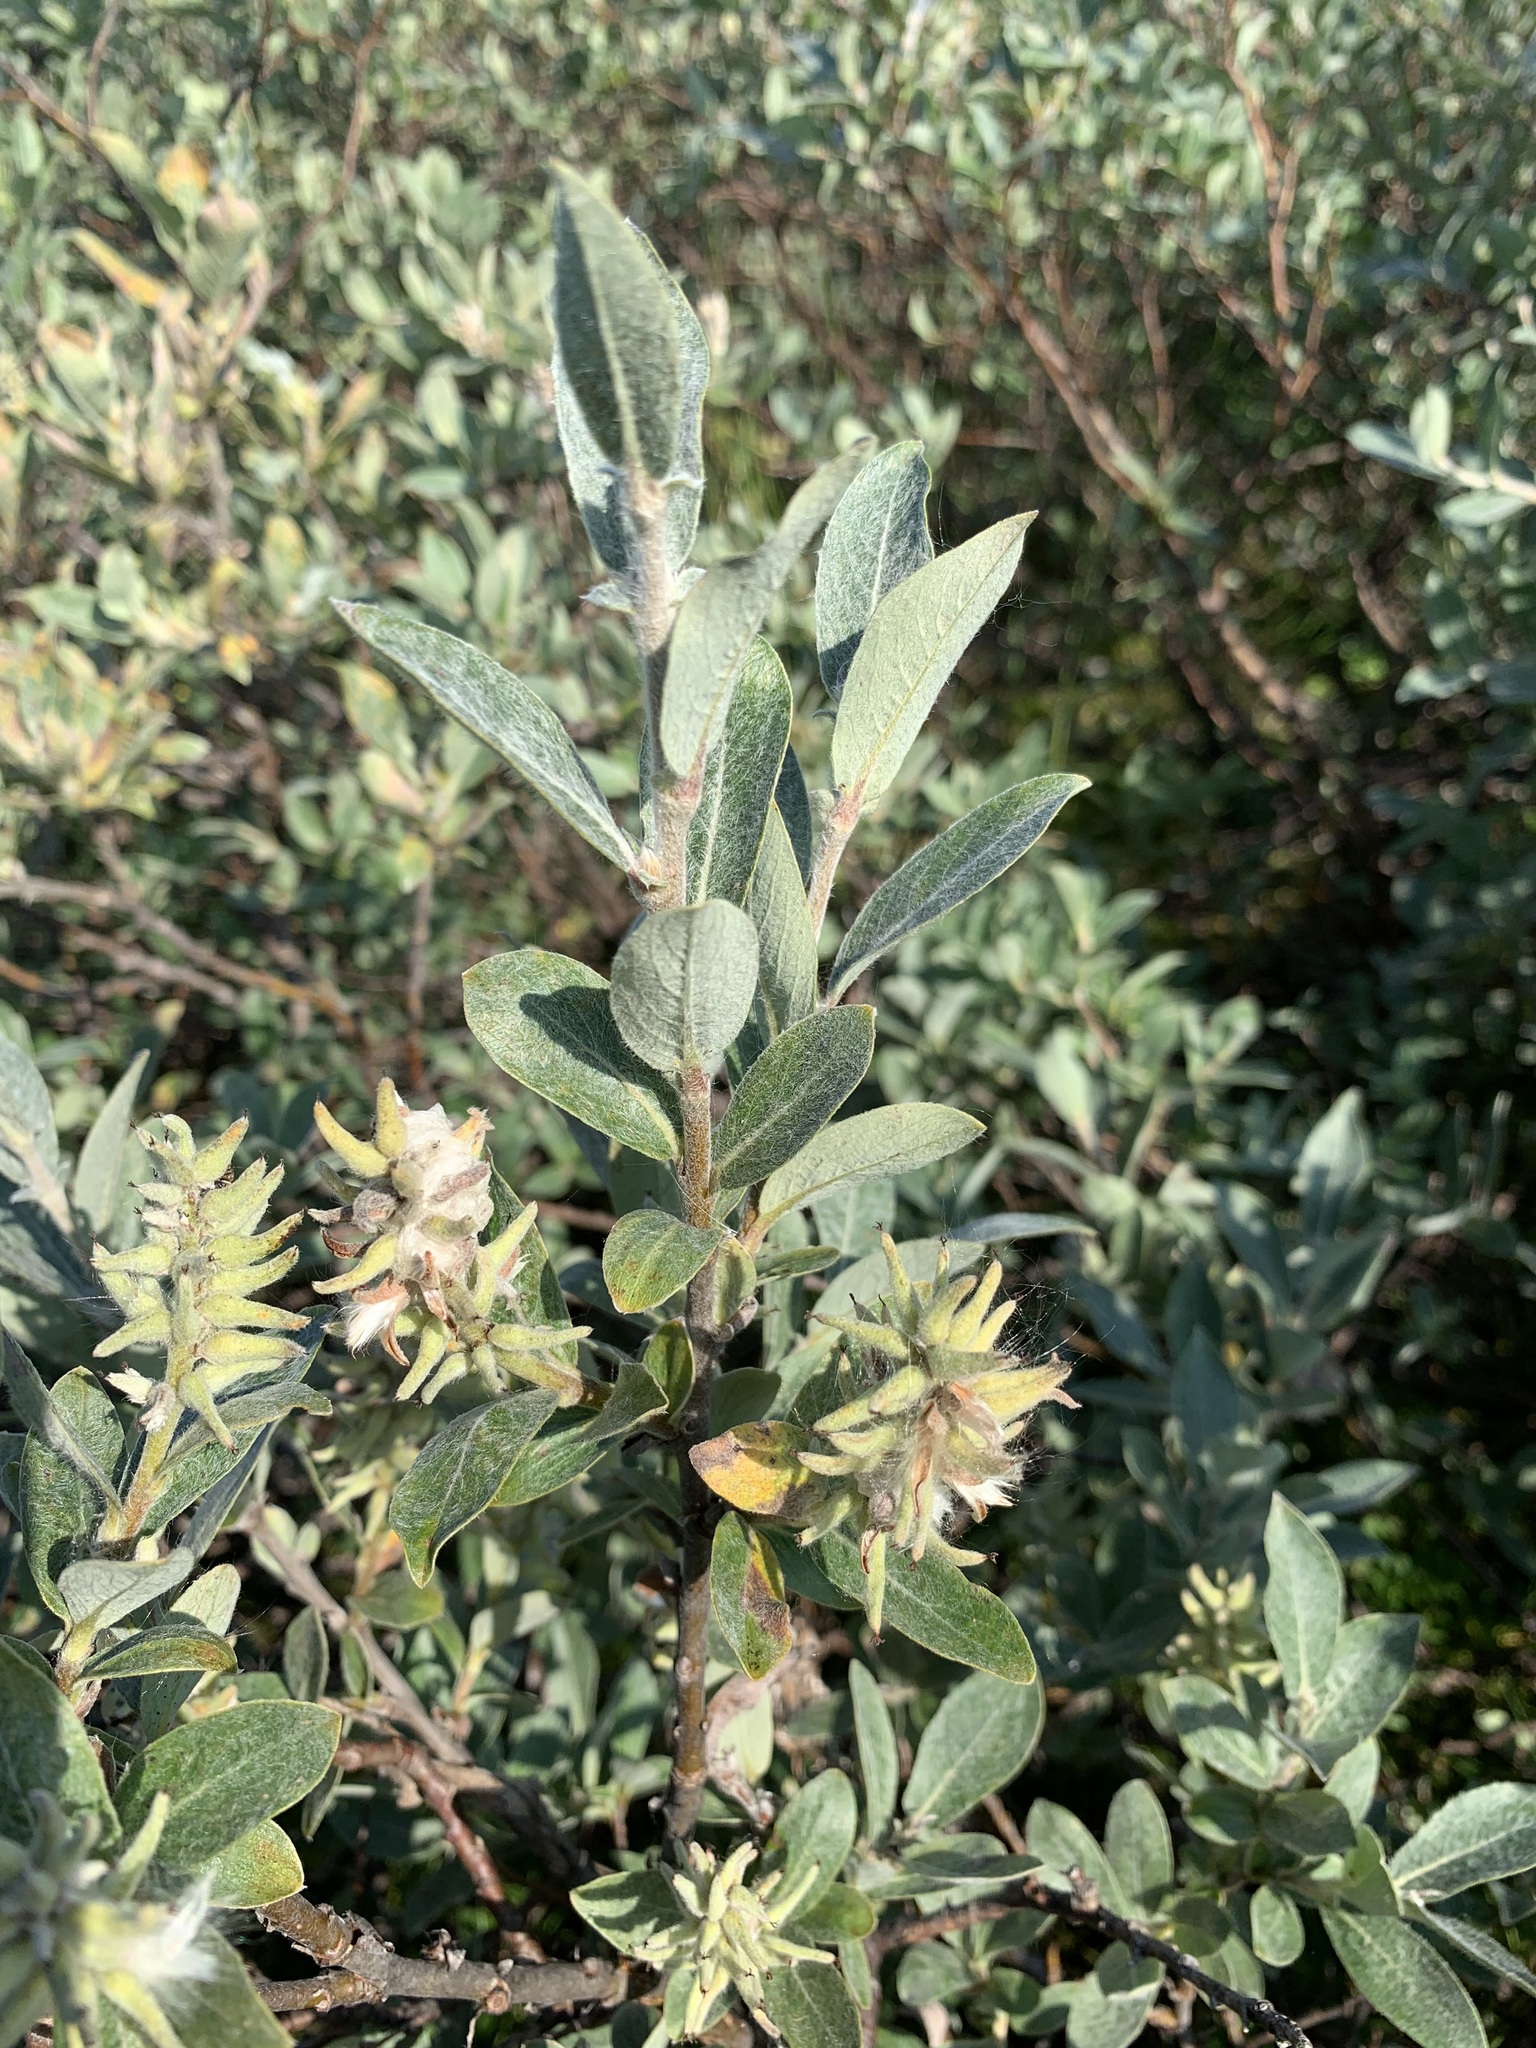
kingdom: Plantae
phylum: Tracheophyta
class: Magnoliopsida
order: Malpighiales
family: Salicaceae
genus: Salix
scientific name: Salix glauca
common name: Glaucous willow
